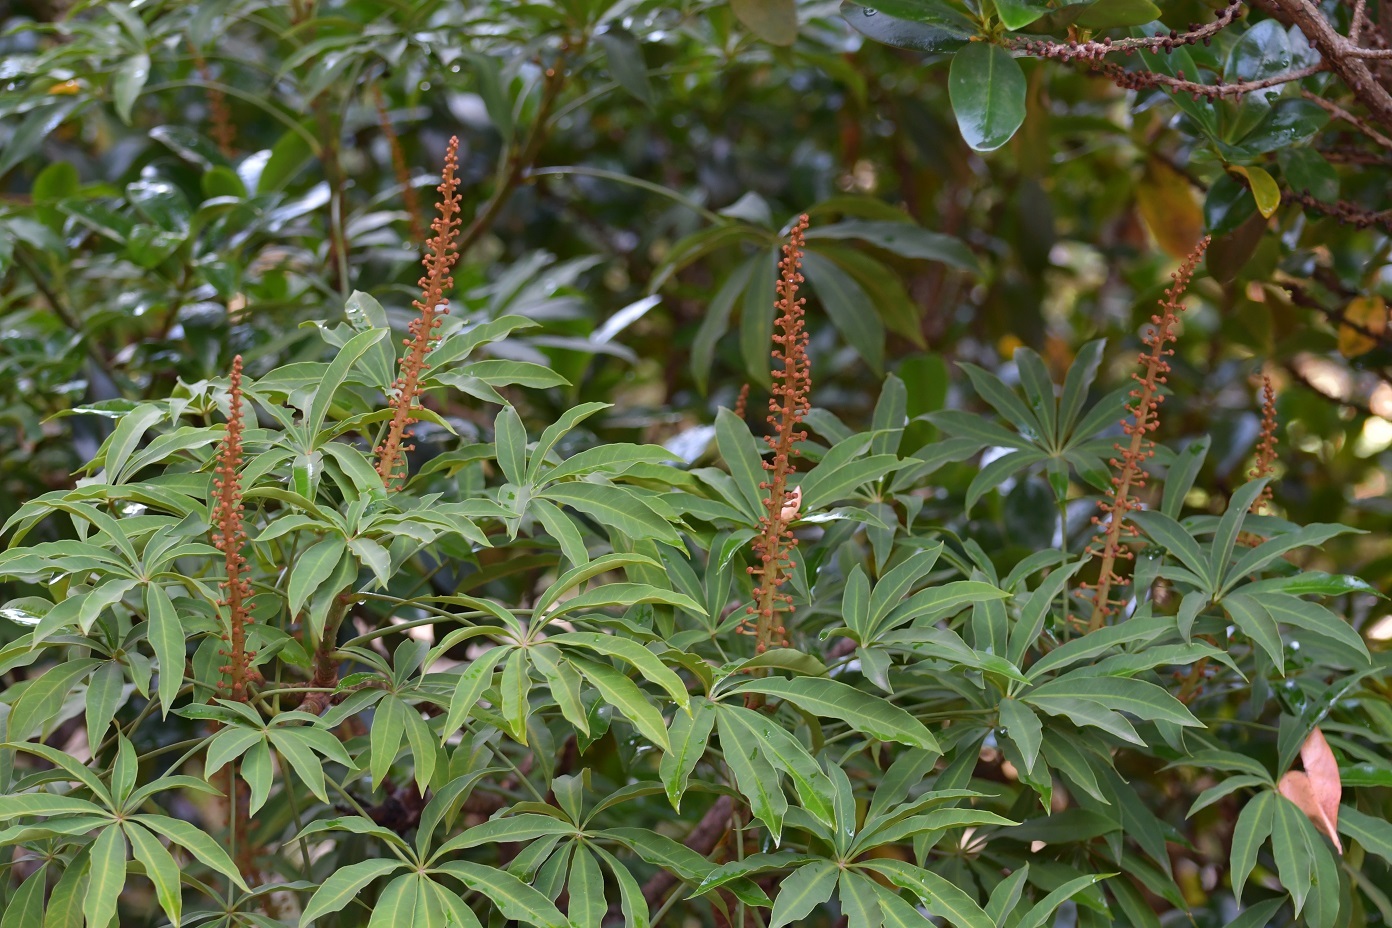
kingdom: Plantae
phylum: Tracheophyta
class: Magnoliopsida
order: Apiales
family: Araliaceae
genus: Oreopanax
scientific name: Oreopanax xalapensis
